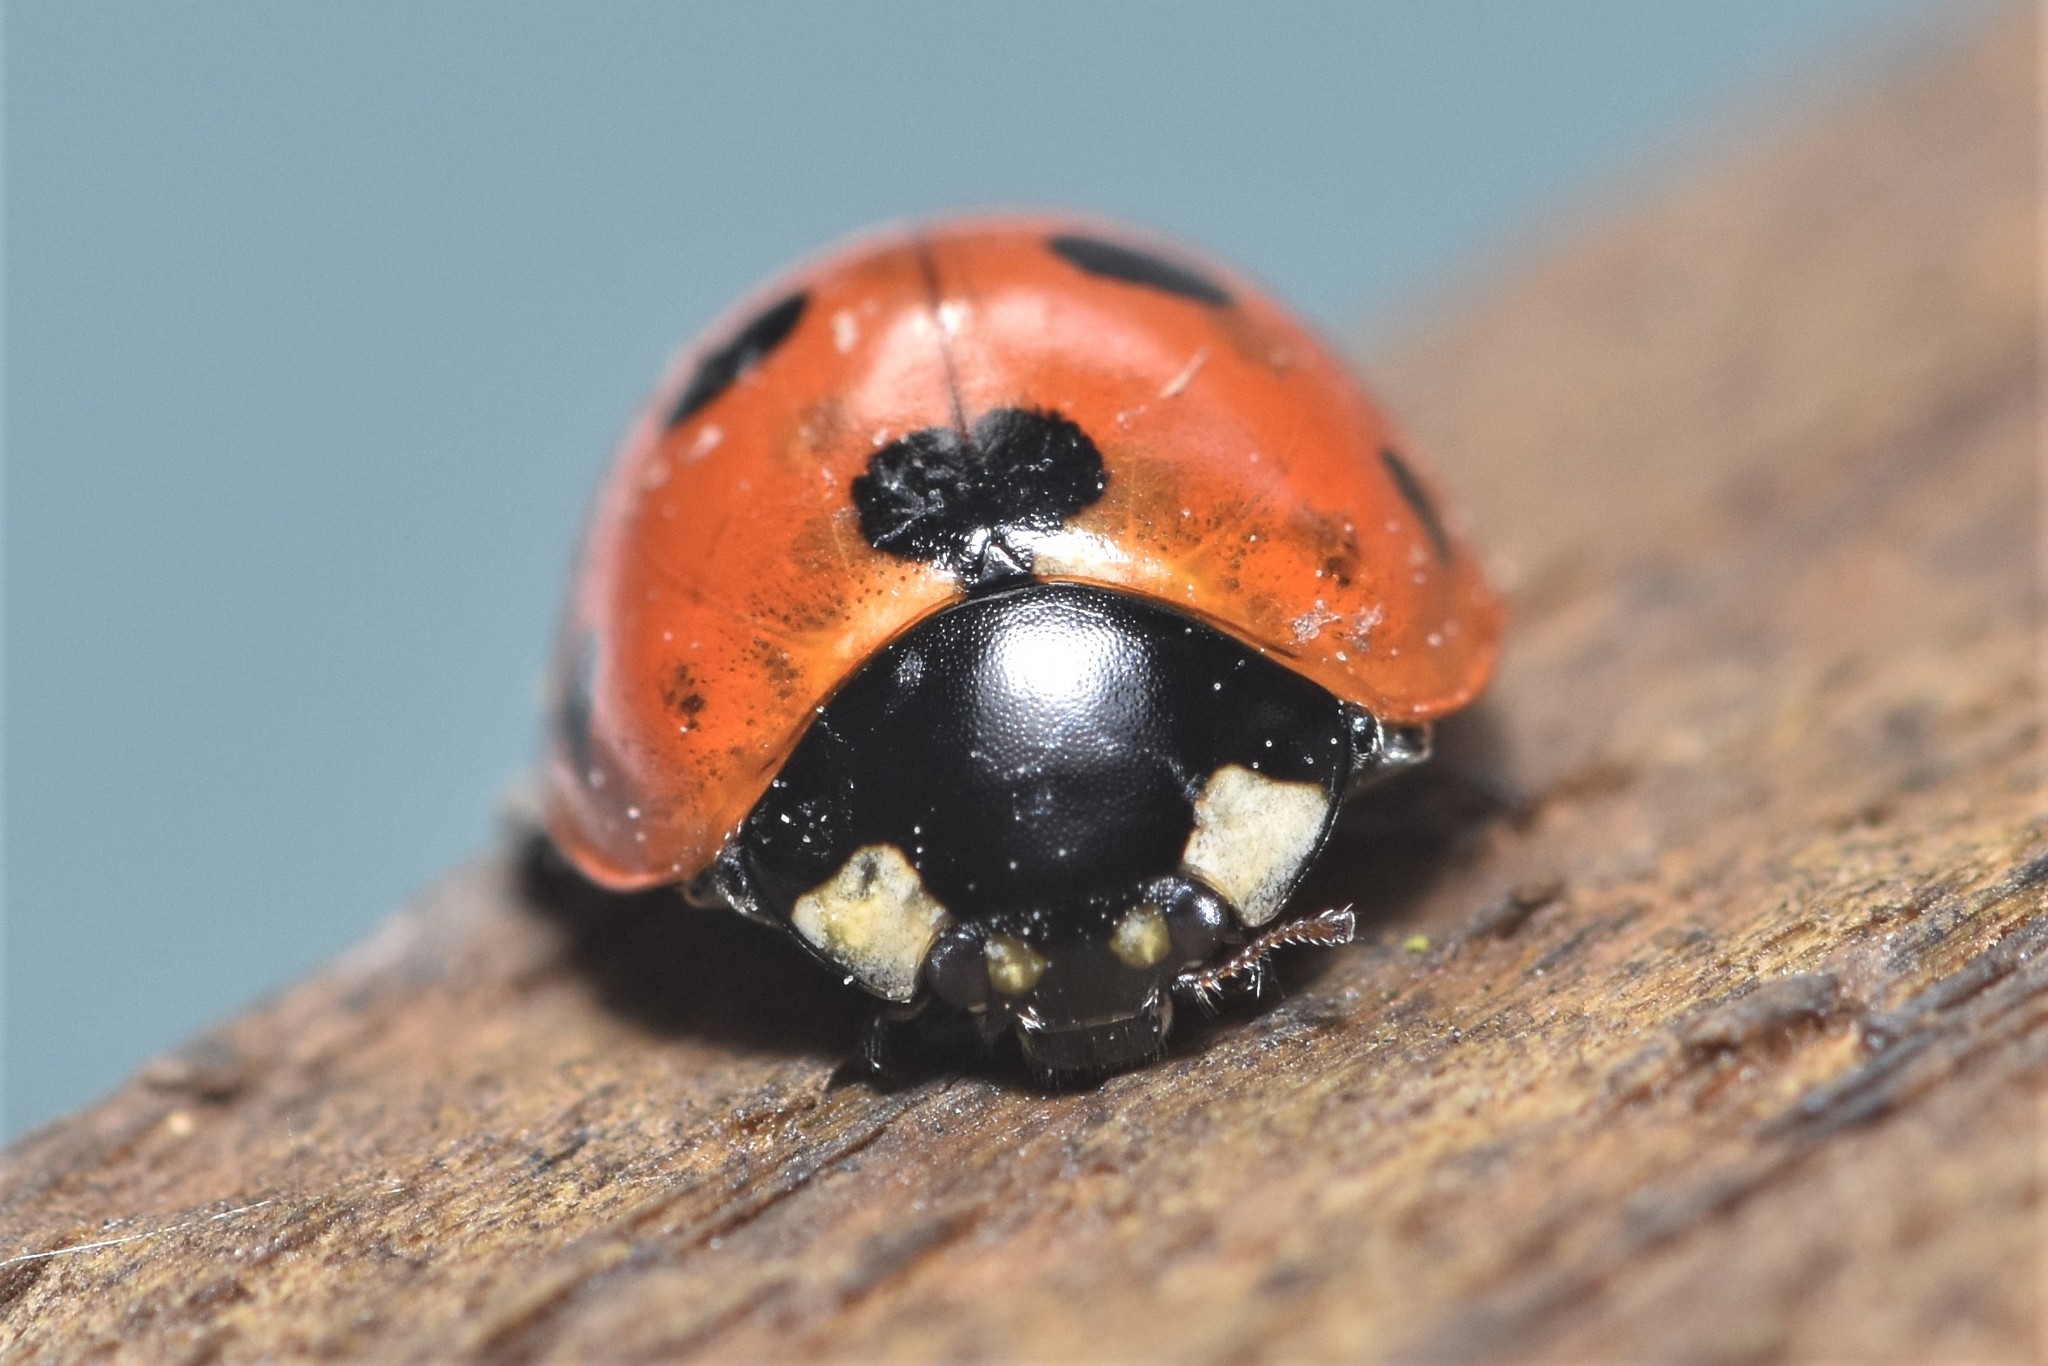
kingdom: Animalia
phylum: Arthropoda
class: Insecta
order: Coleoptera
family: Coccinellidae
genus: Coccinella
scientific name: Coccinella septempunctata
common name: Sevenspotted lady beetle
